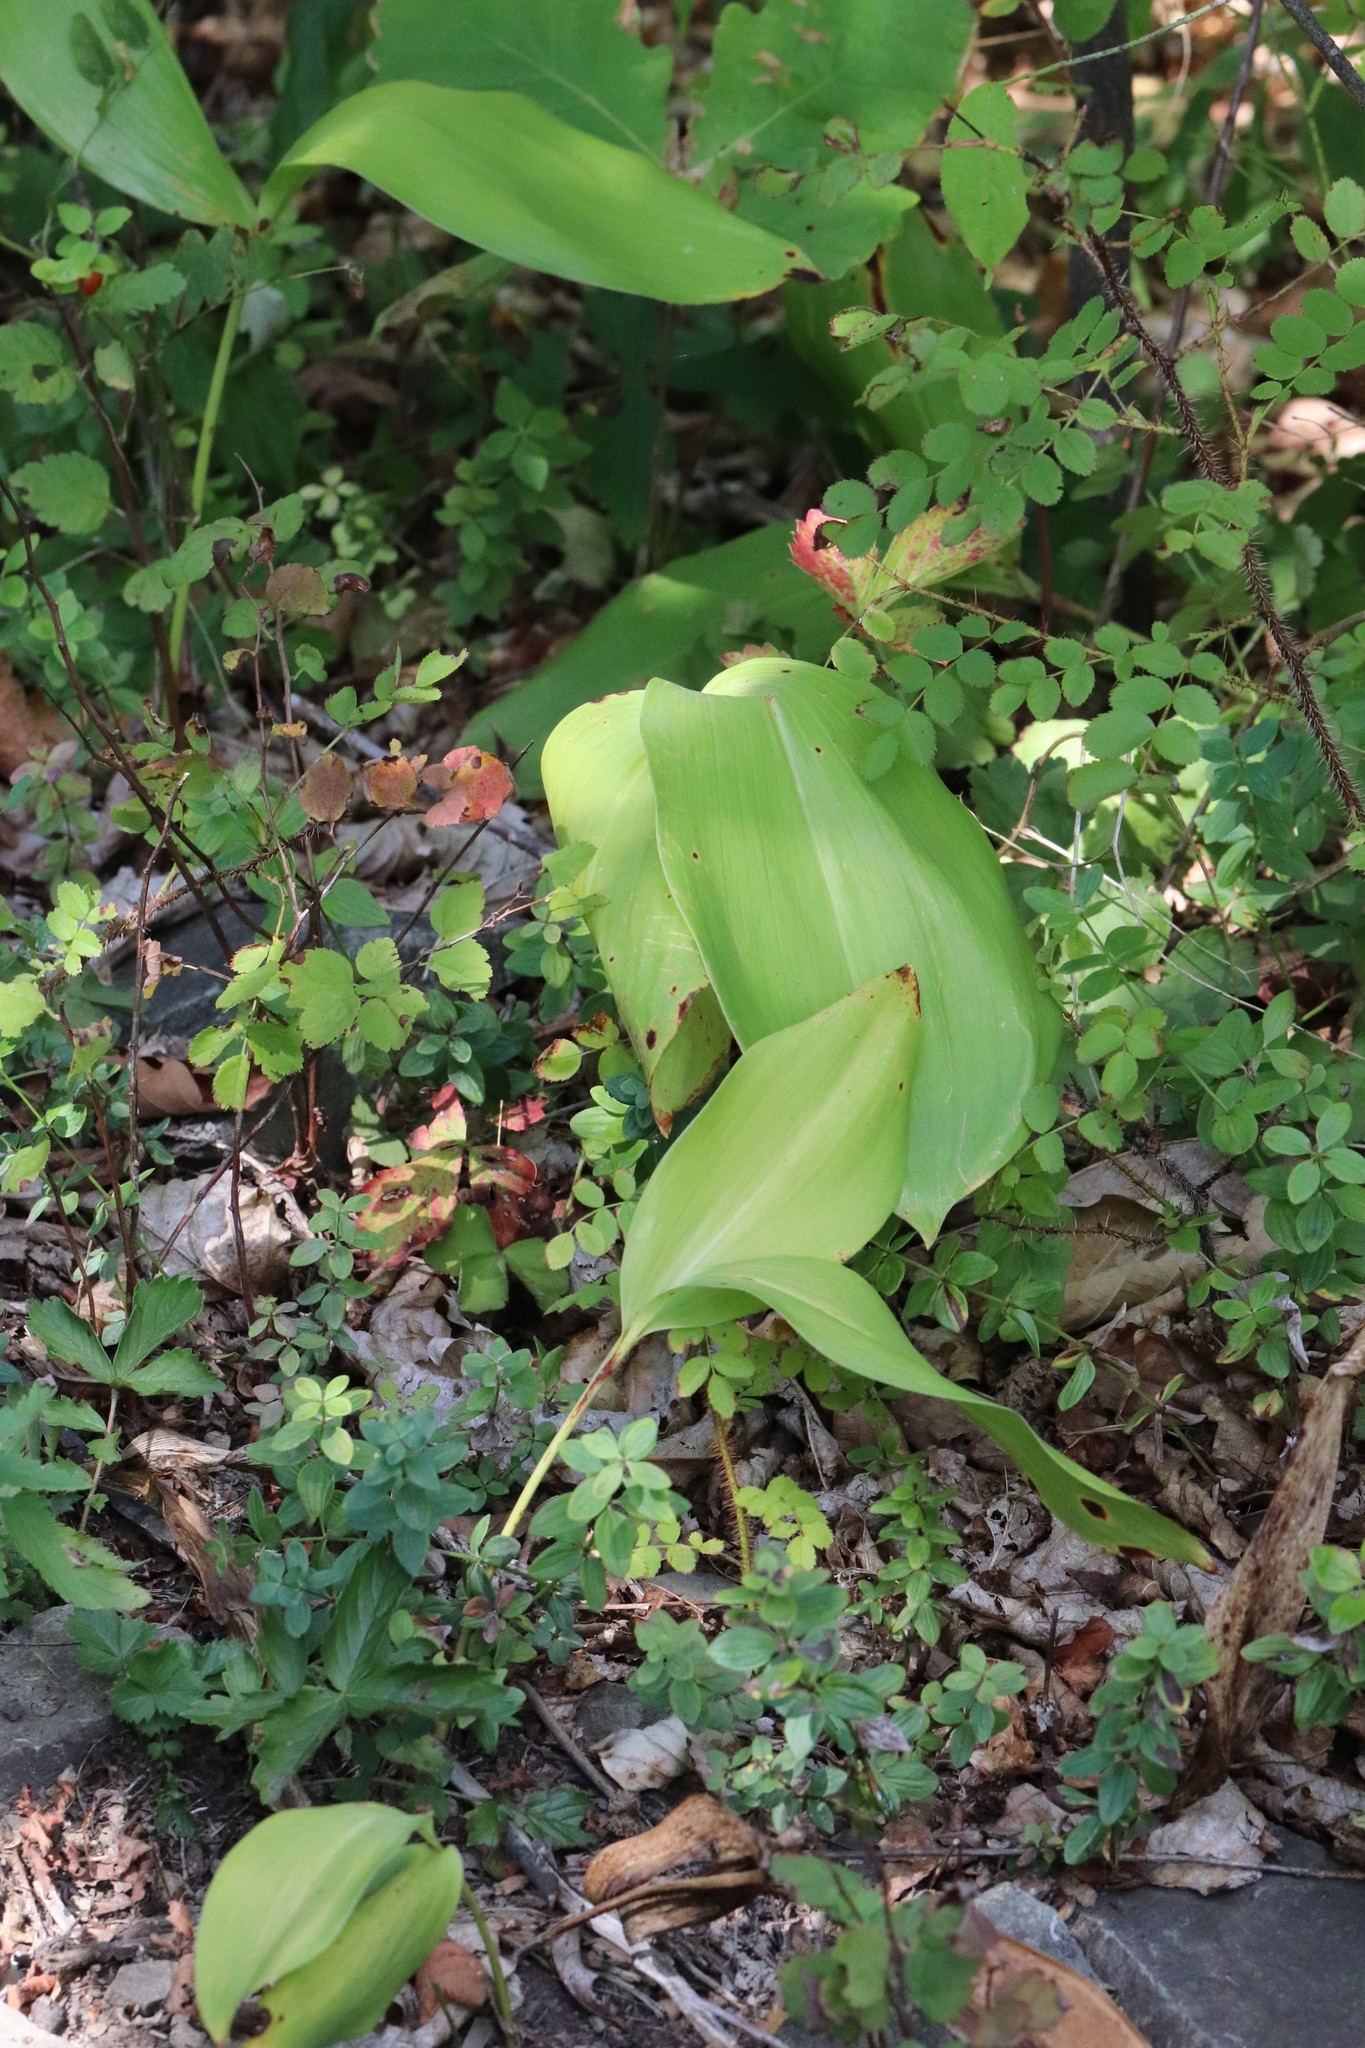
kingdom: Plantae
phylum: Tracheophyta
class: Liliopsida
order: Asparagales
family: Asparagaceae
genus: Convallaria
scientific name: Convallaria keiskei
